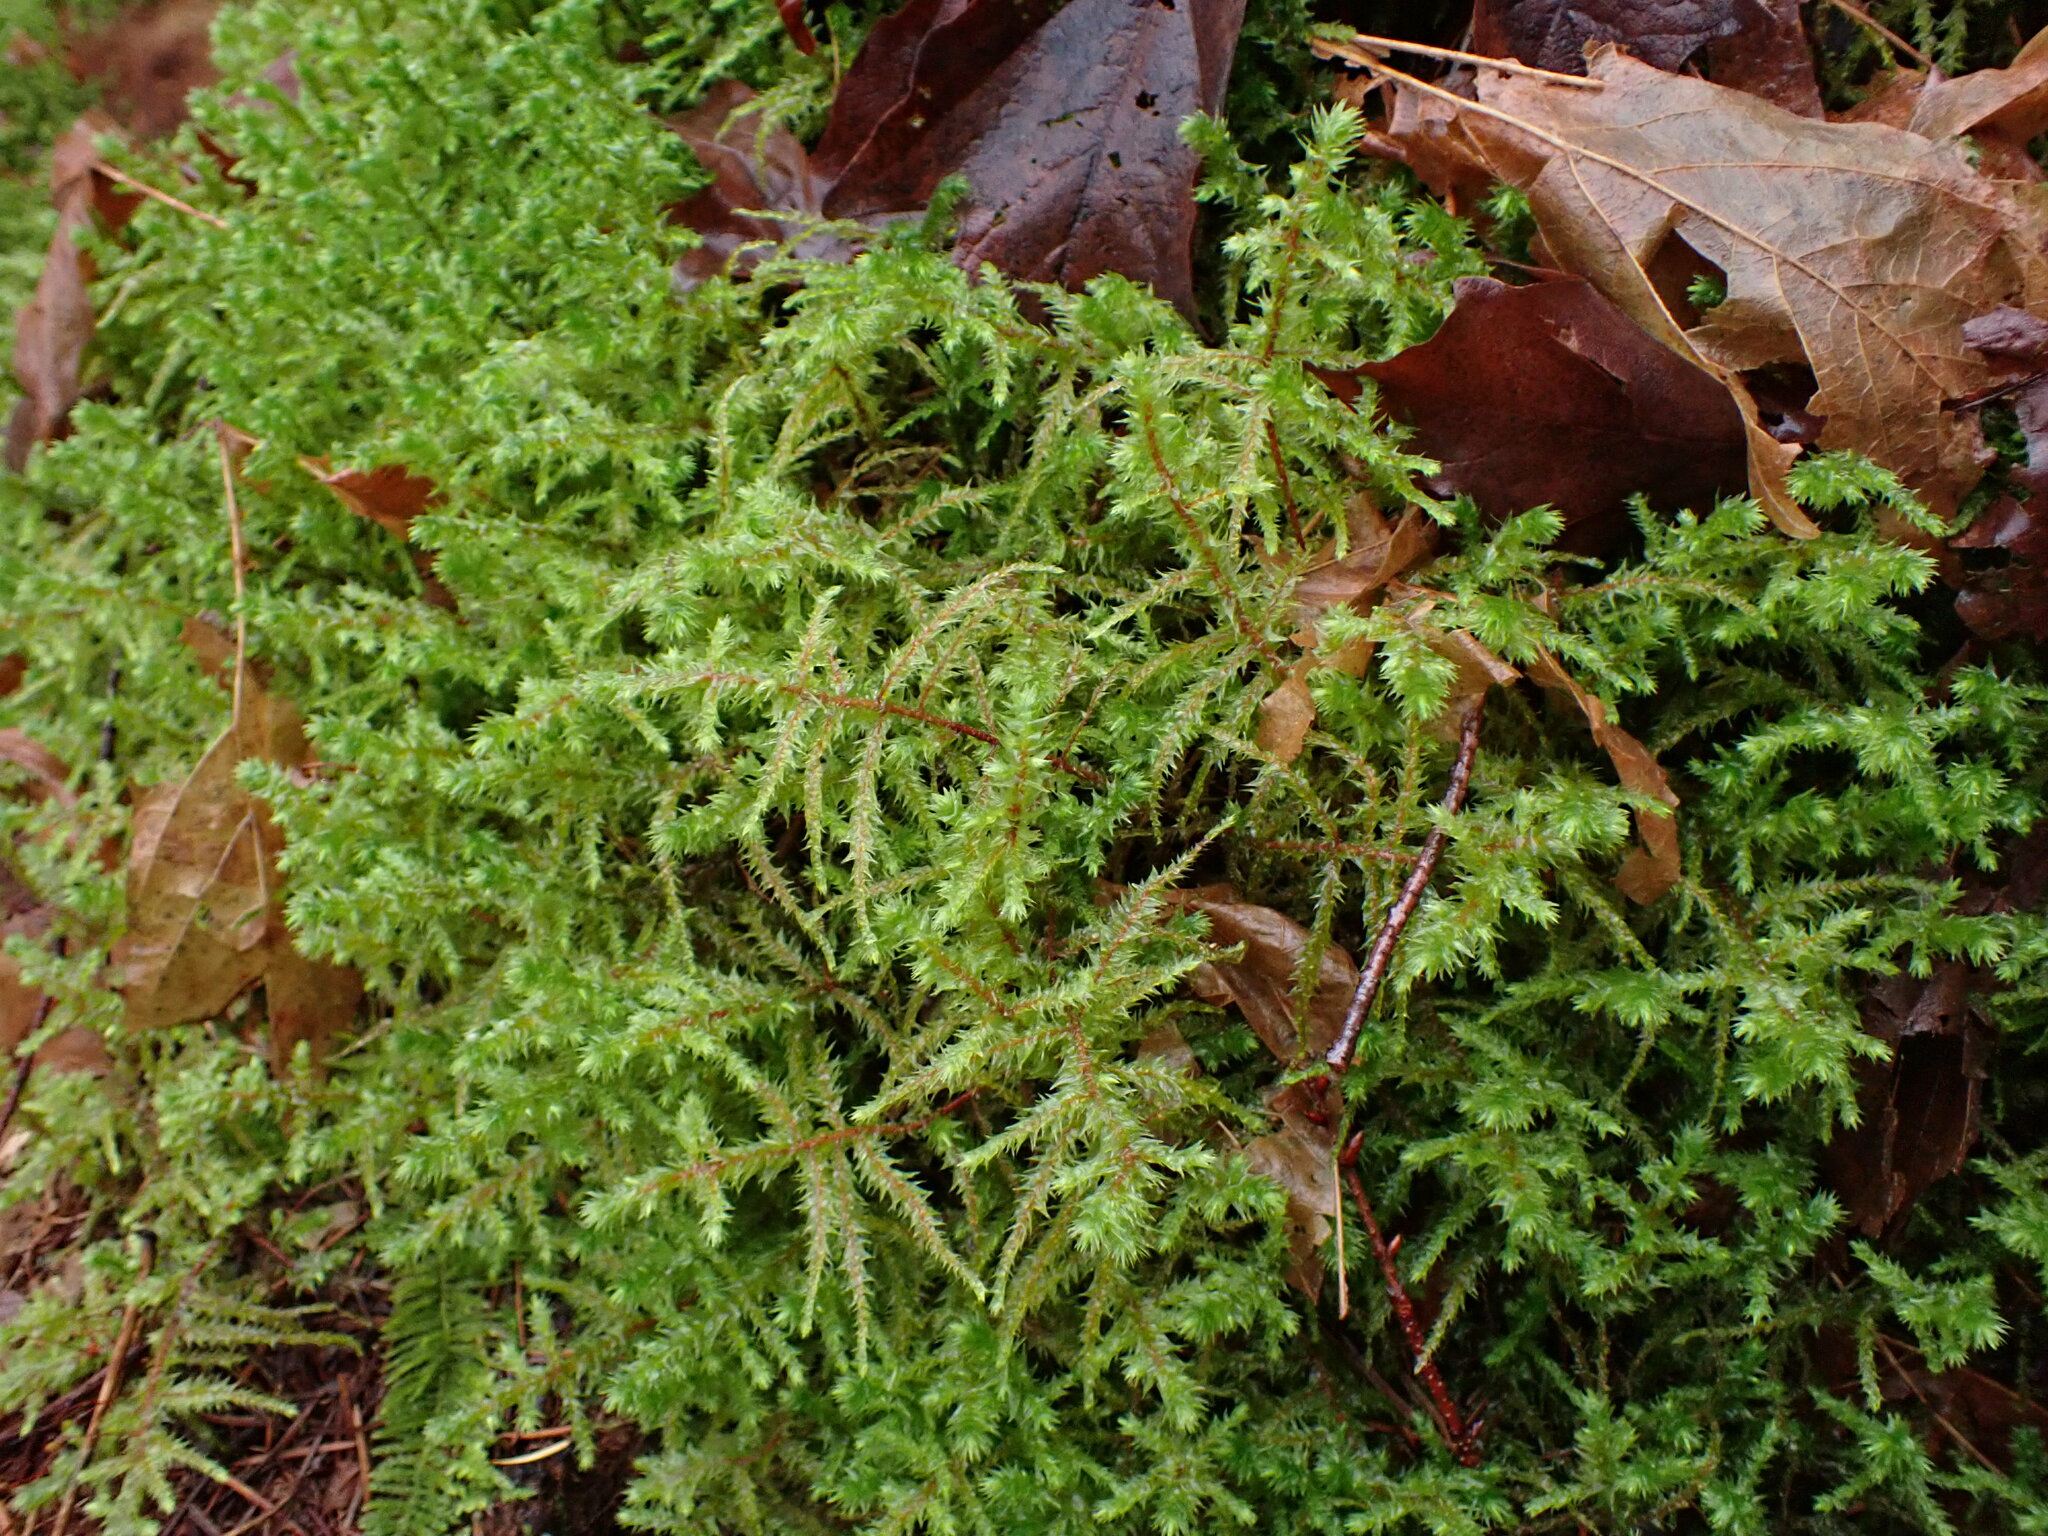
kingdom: Plantae
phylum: Bryophyta
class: Bryopsida
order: Hypnales
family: Hylocomiaceae
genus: Hylocomiadelphus
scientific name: Hylocomiadelphus triquetrus
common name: Rough goose neck moss
